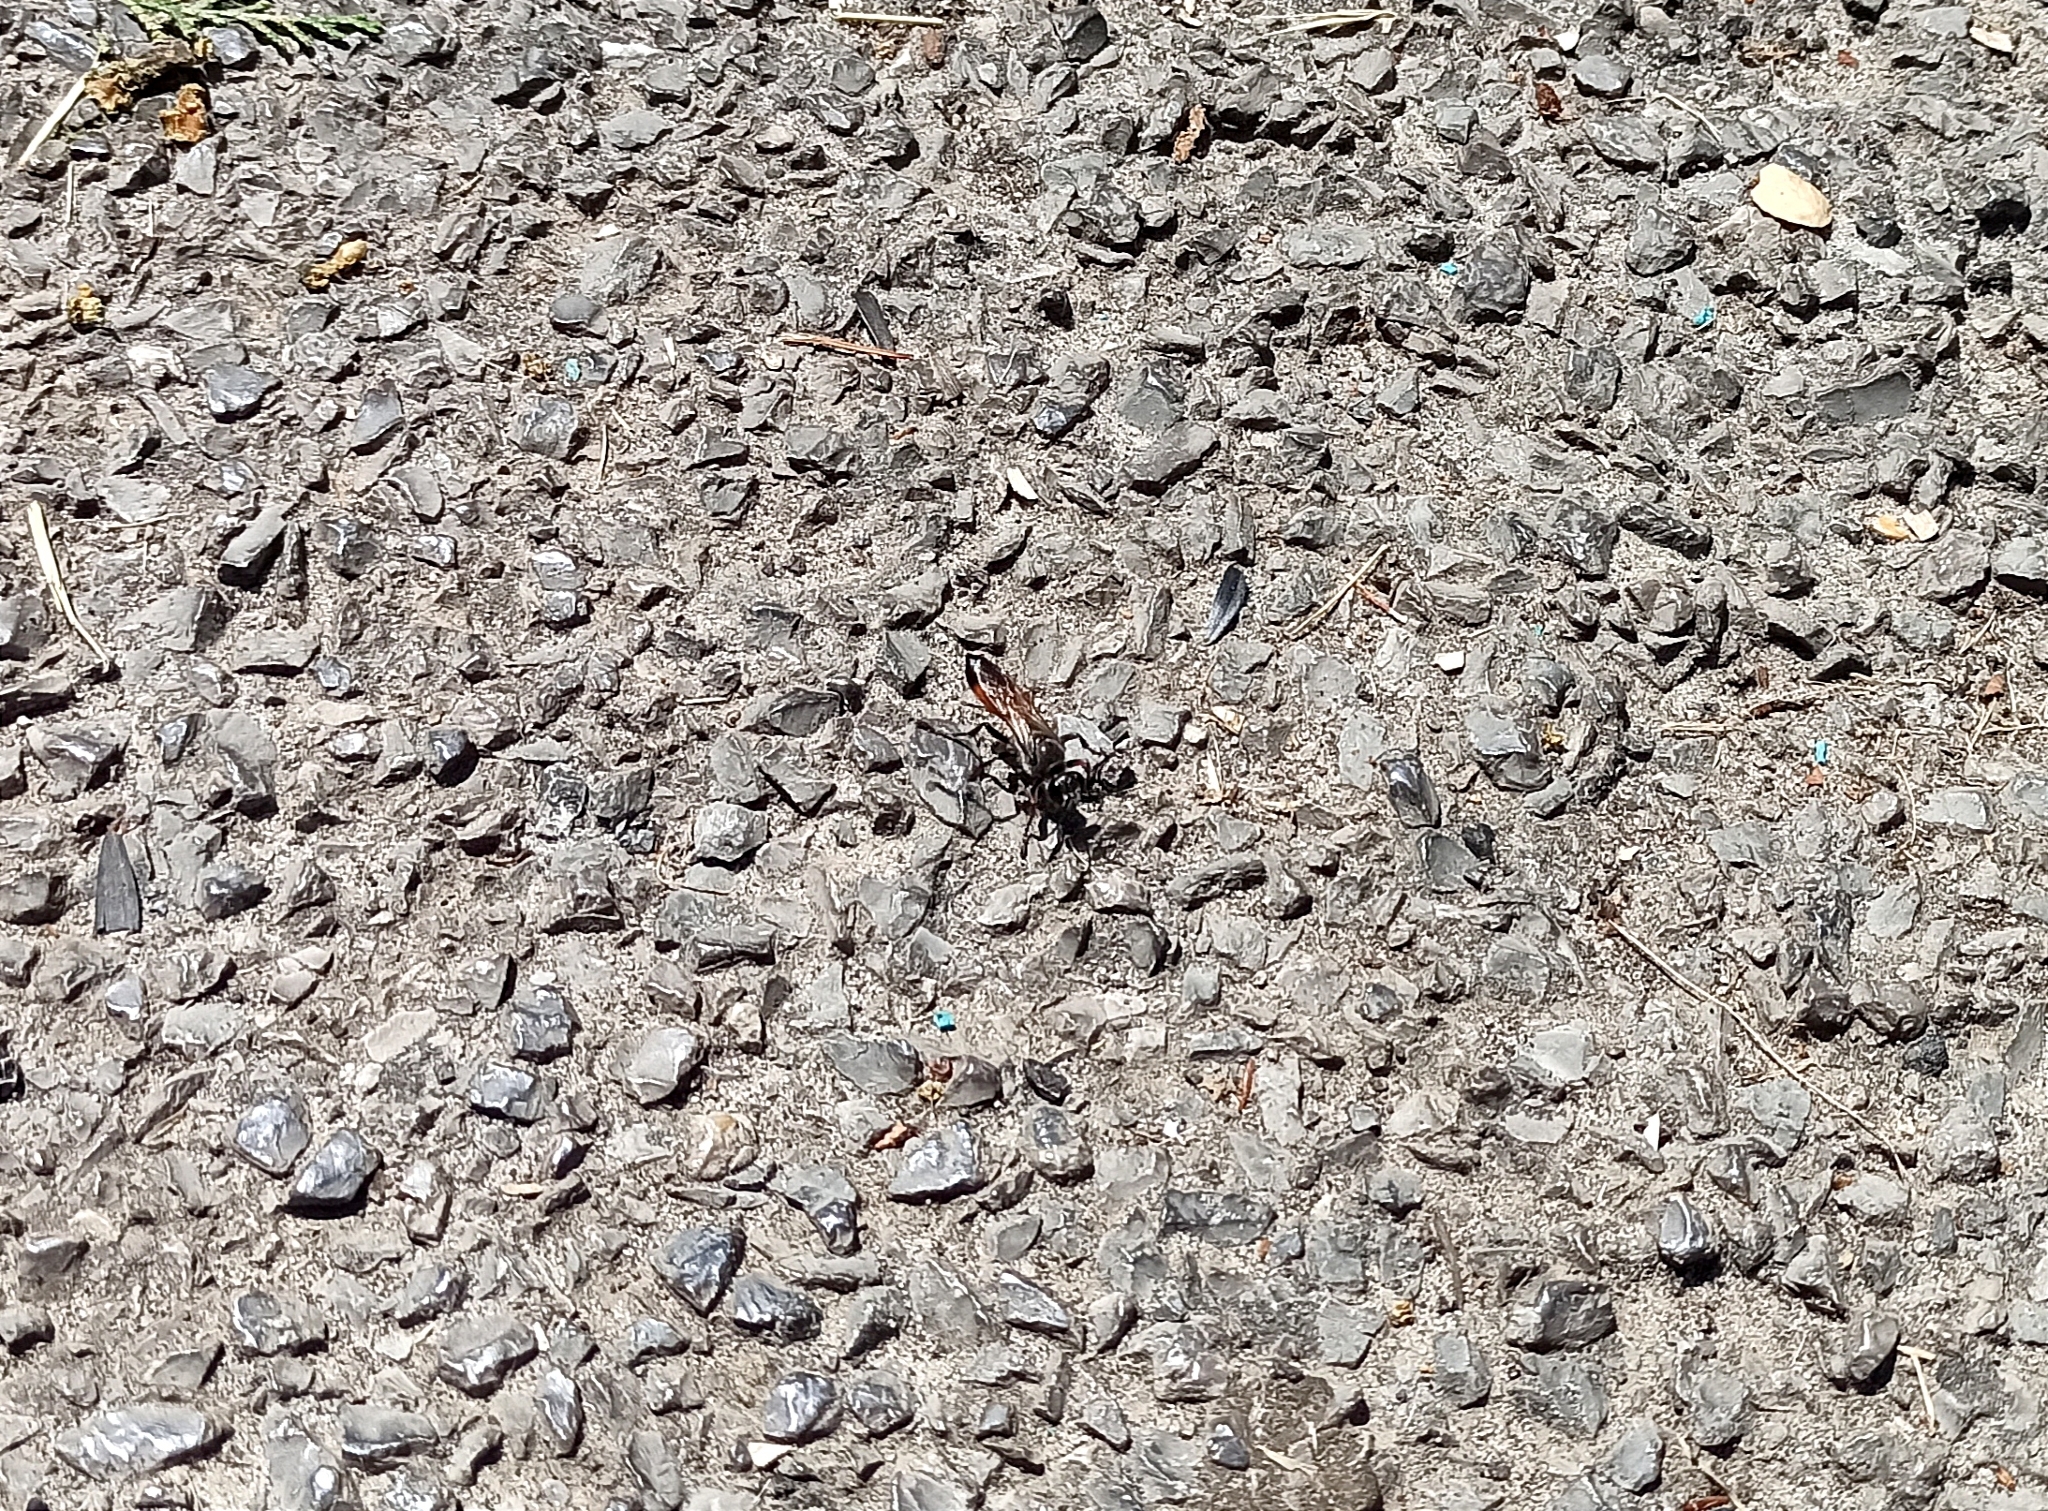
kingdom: Animalia
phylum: Arthropoda
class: Insecta
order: Hymenoptera
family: Sphecidae
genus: Sphex
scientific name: Sphex funerarius
